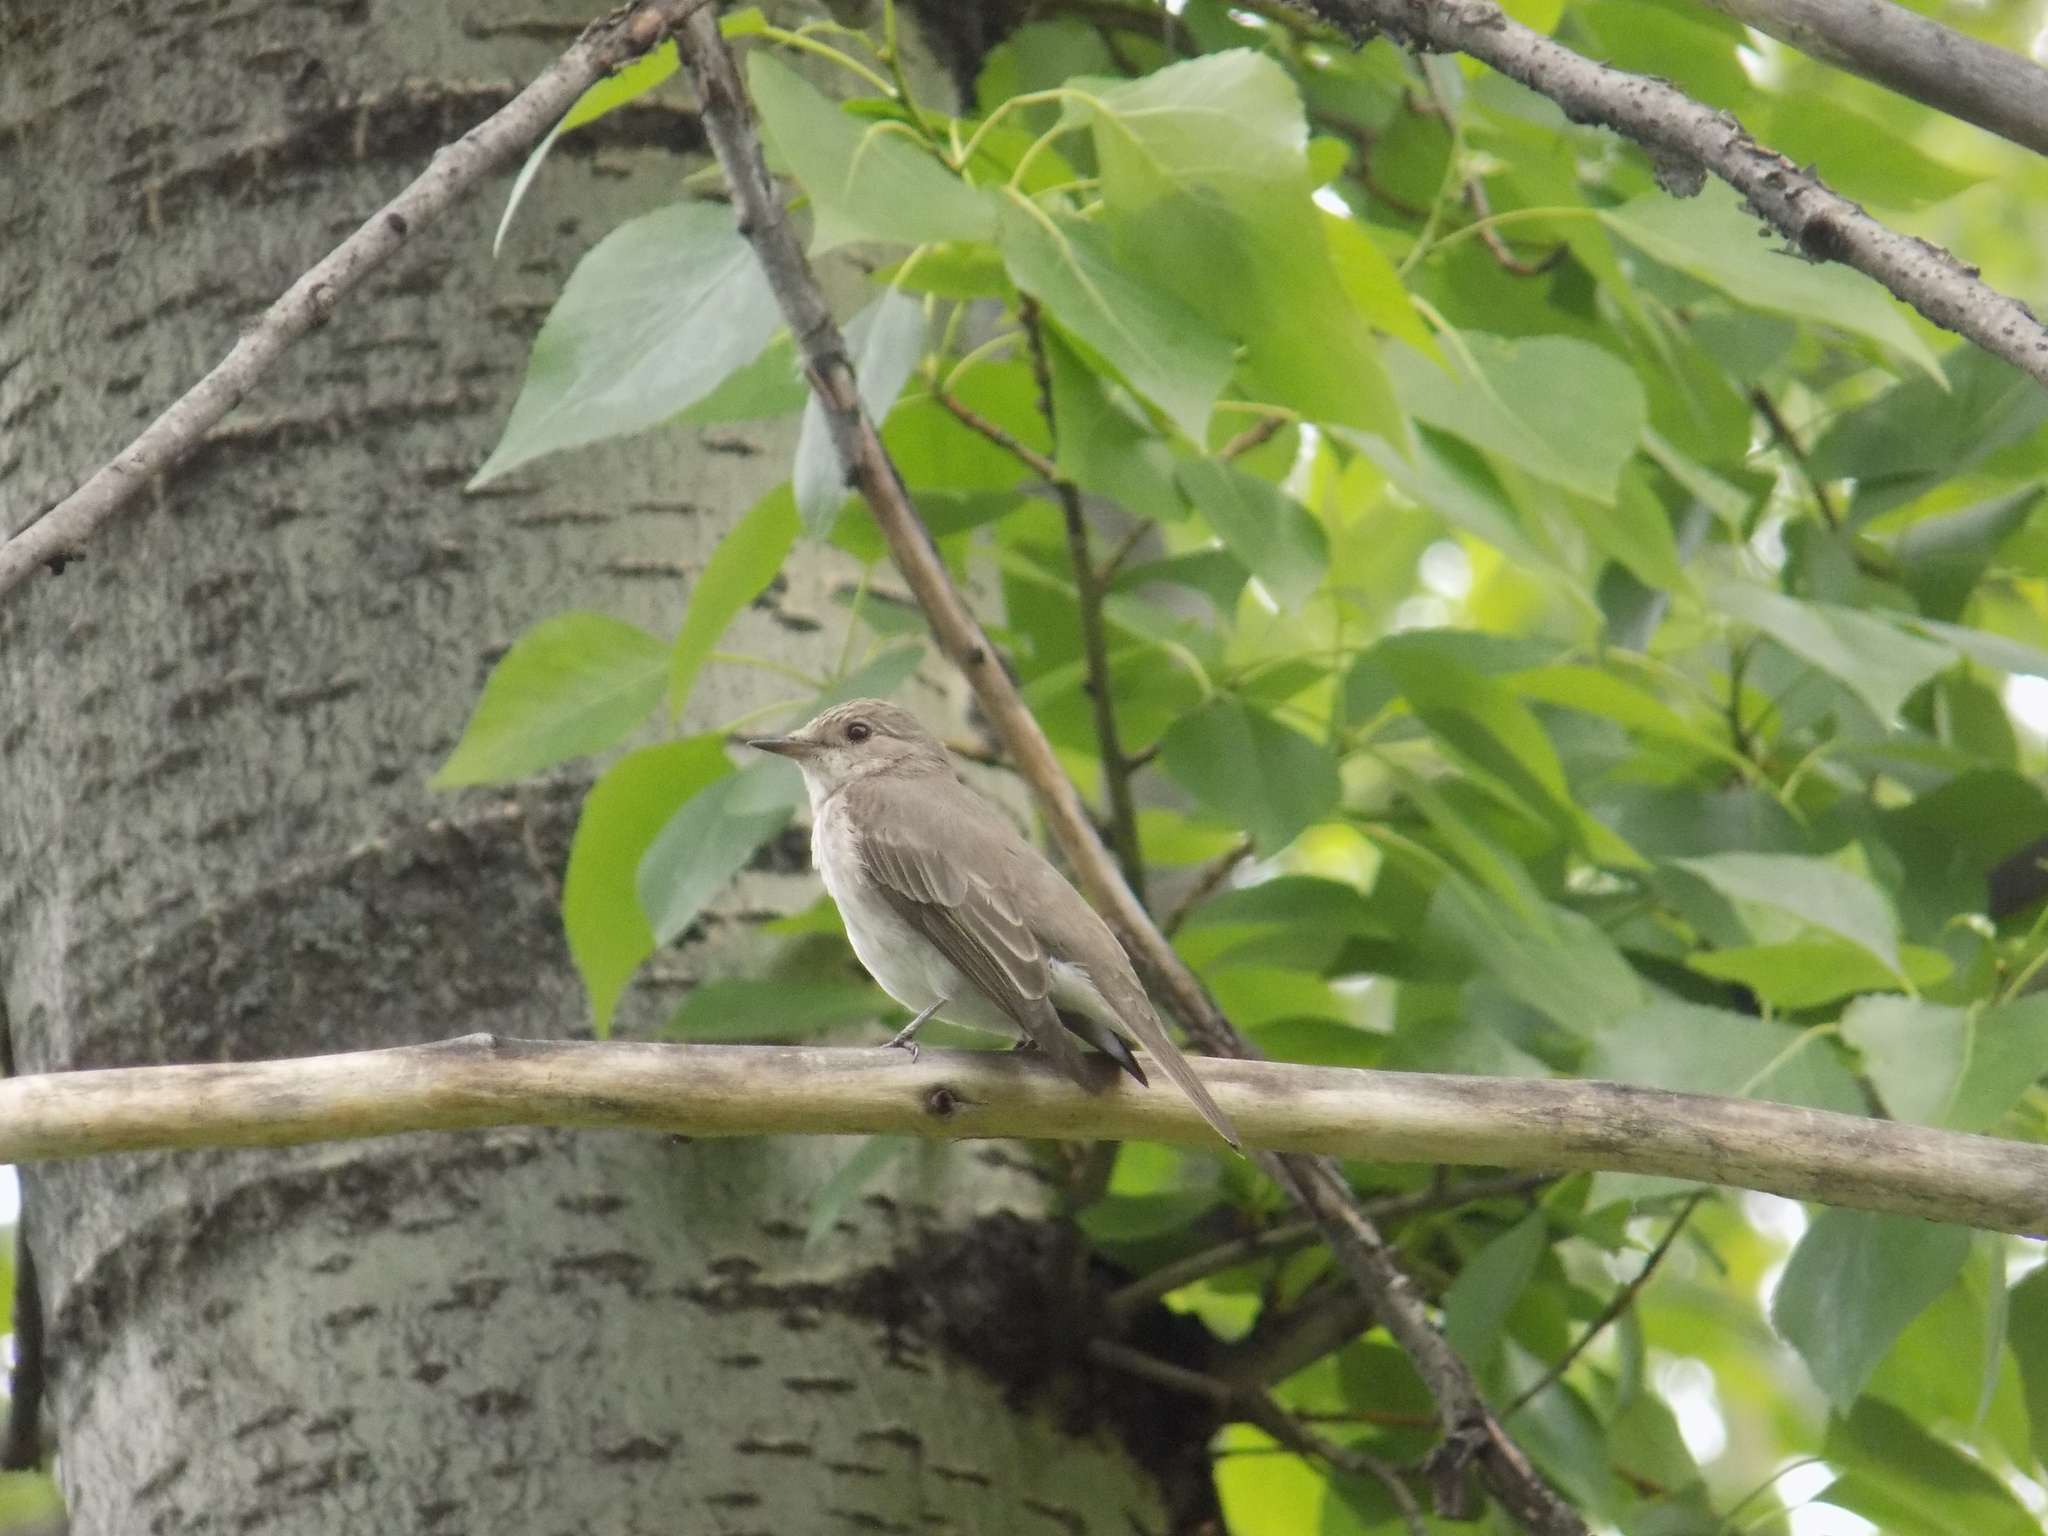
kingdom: Animalia
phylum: Chordata
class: Aves
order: Passeriformes
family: Muscicapidae
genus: Muscicapa
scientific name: Muscicapa striata
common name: Spotted flycatcher
